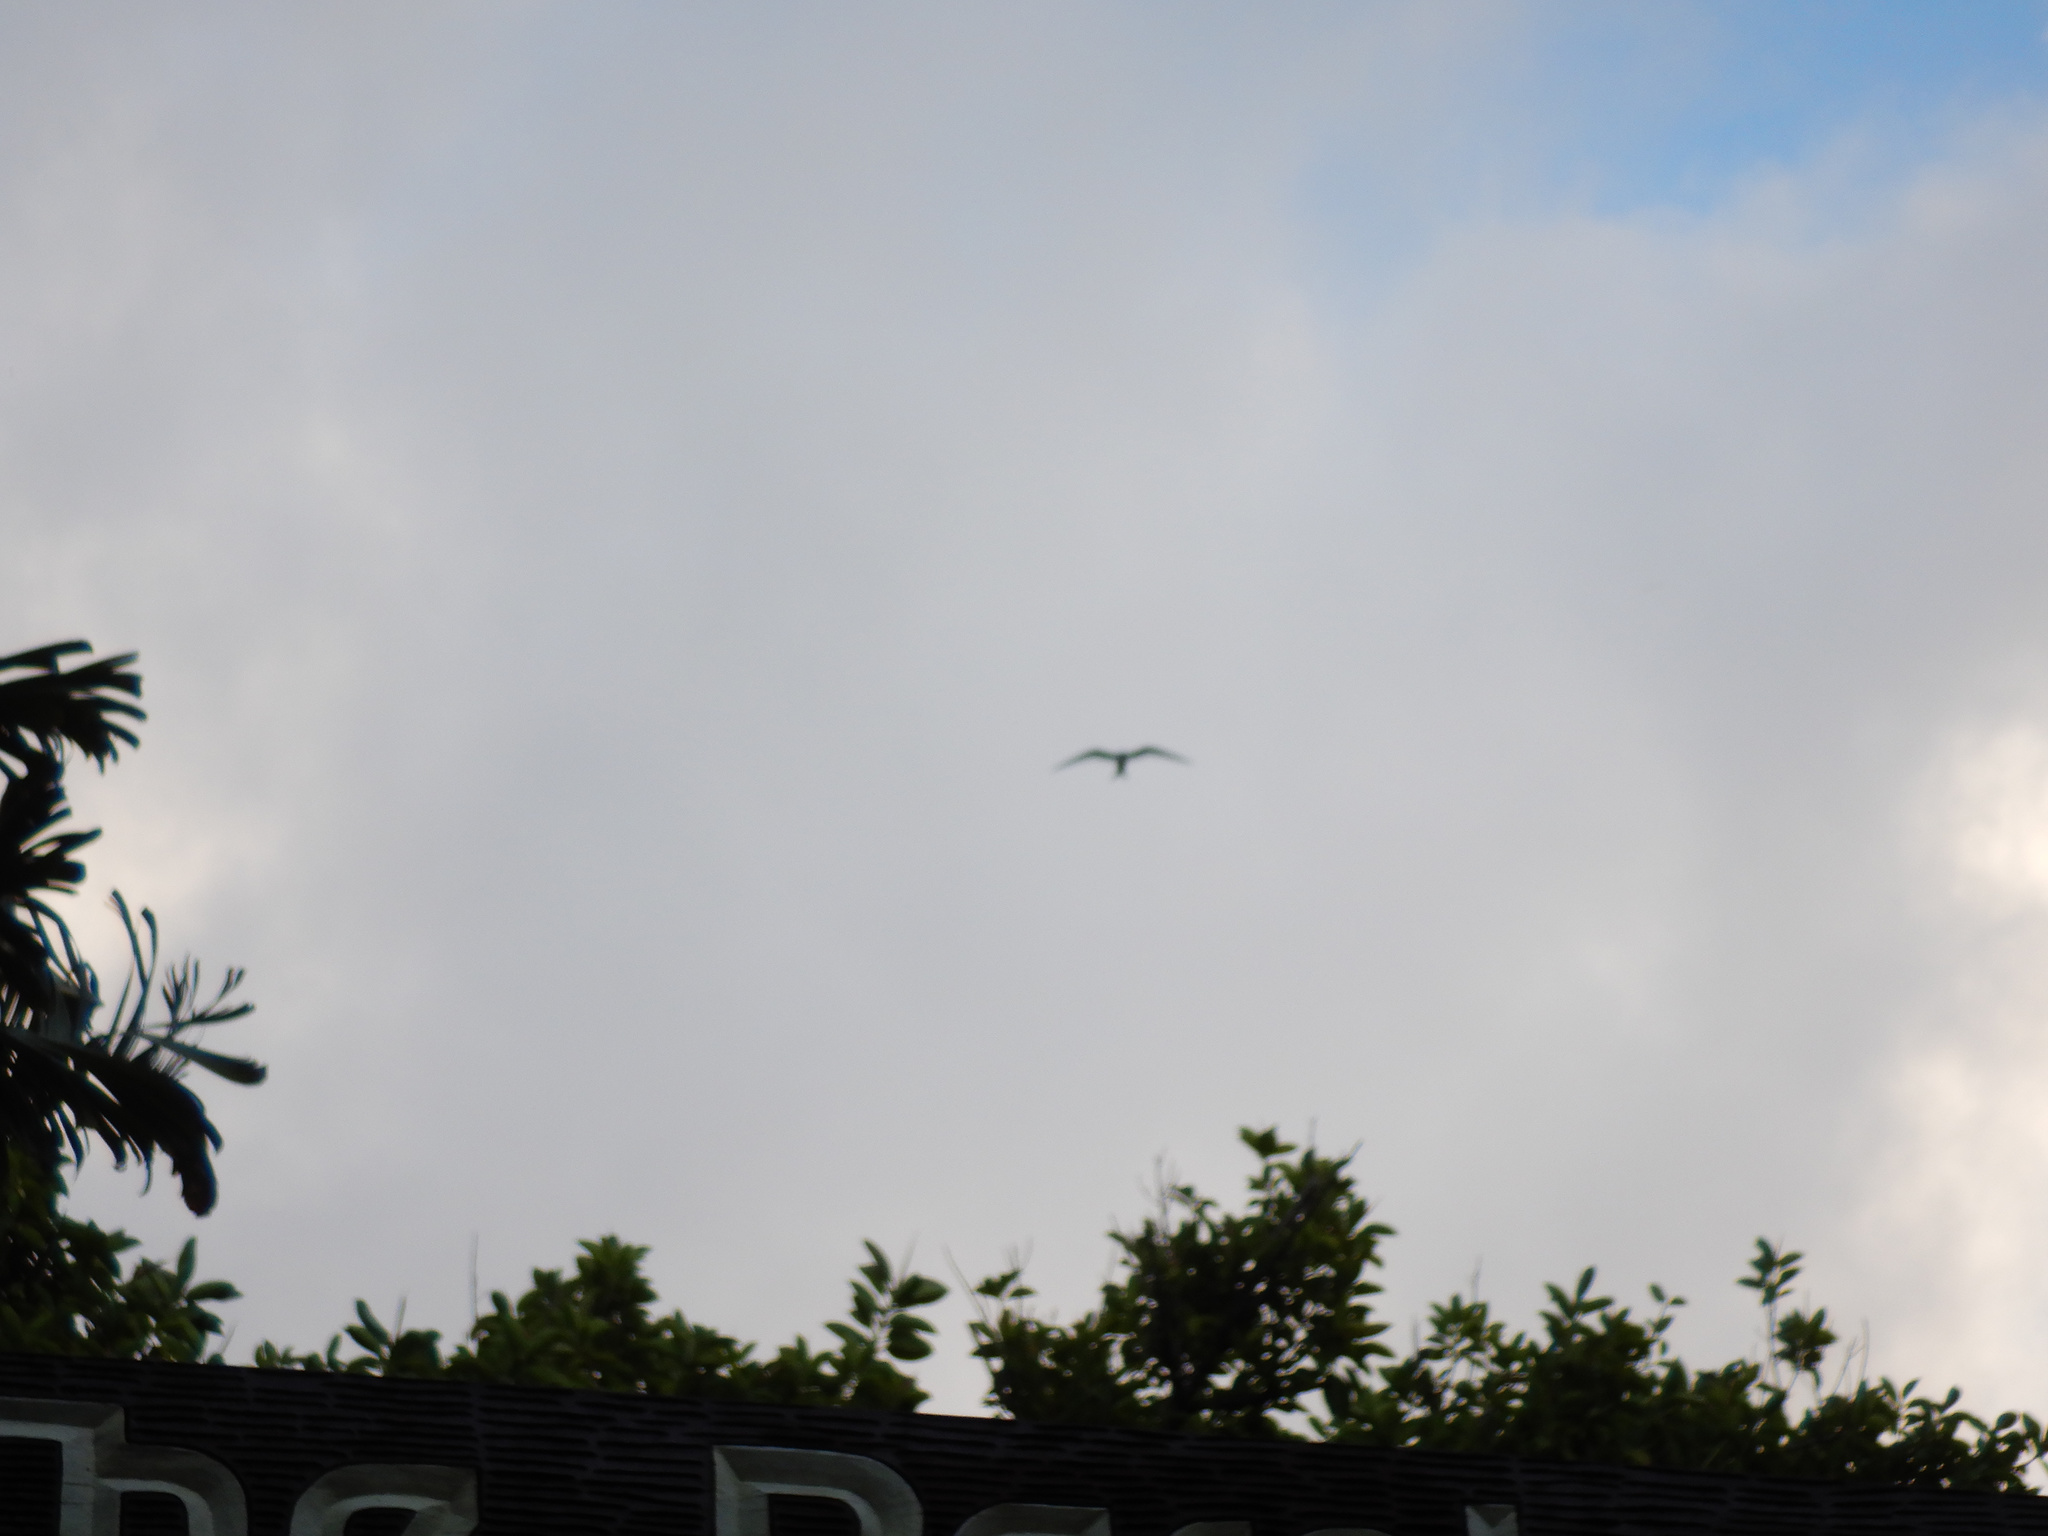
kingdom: Animalia
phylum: Chordata
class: Aves
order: Charadriiformes
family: Laridae
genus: Gygis
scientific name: Gygis alba
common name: White tern
